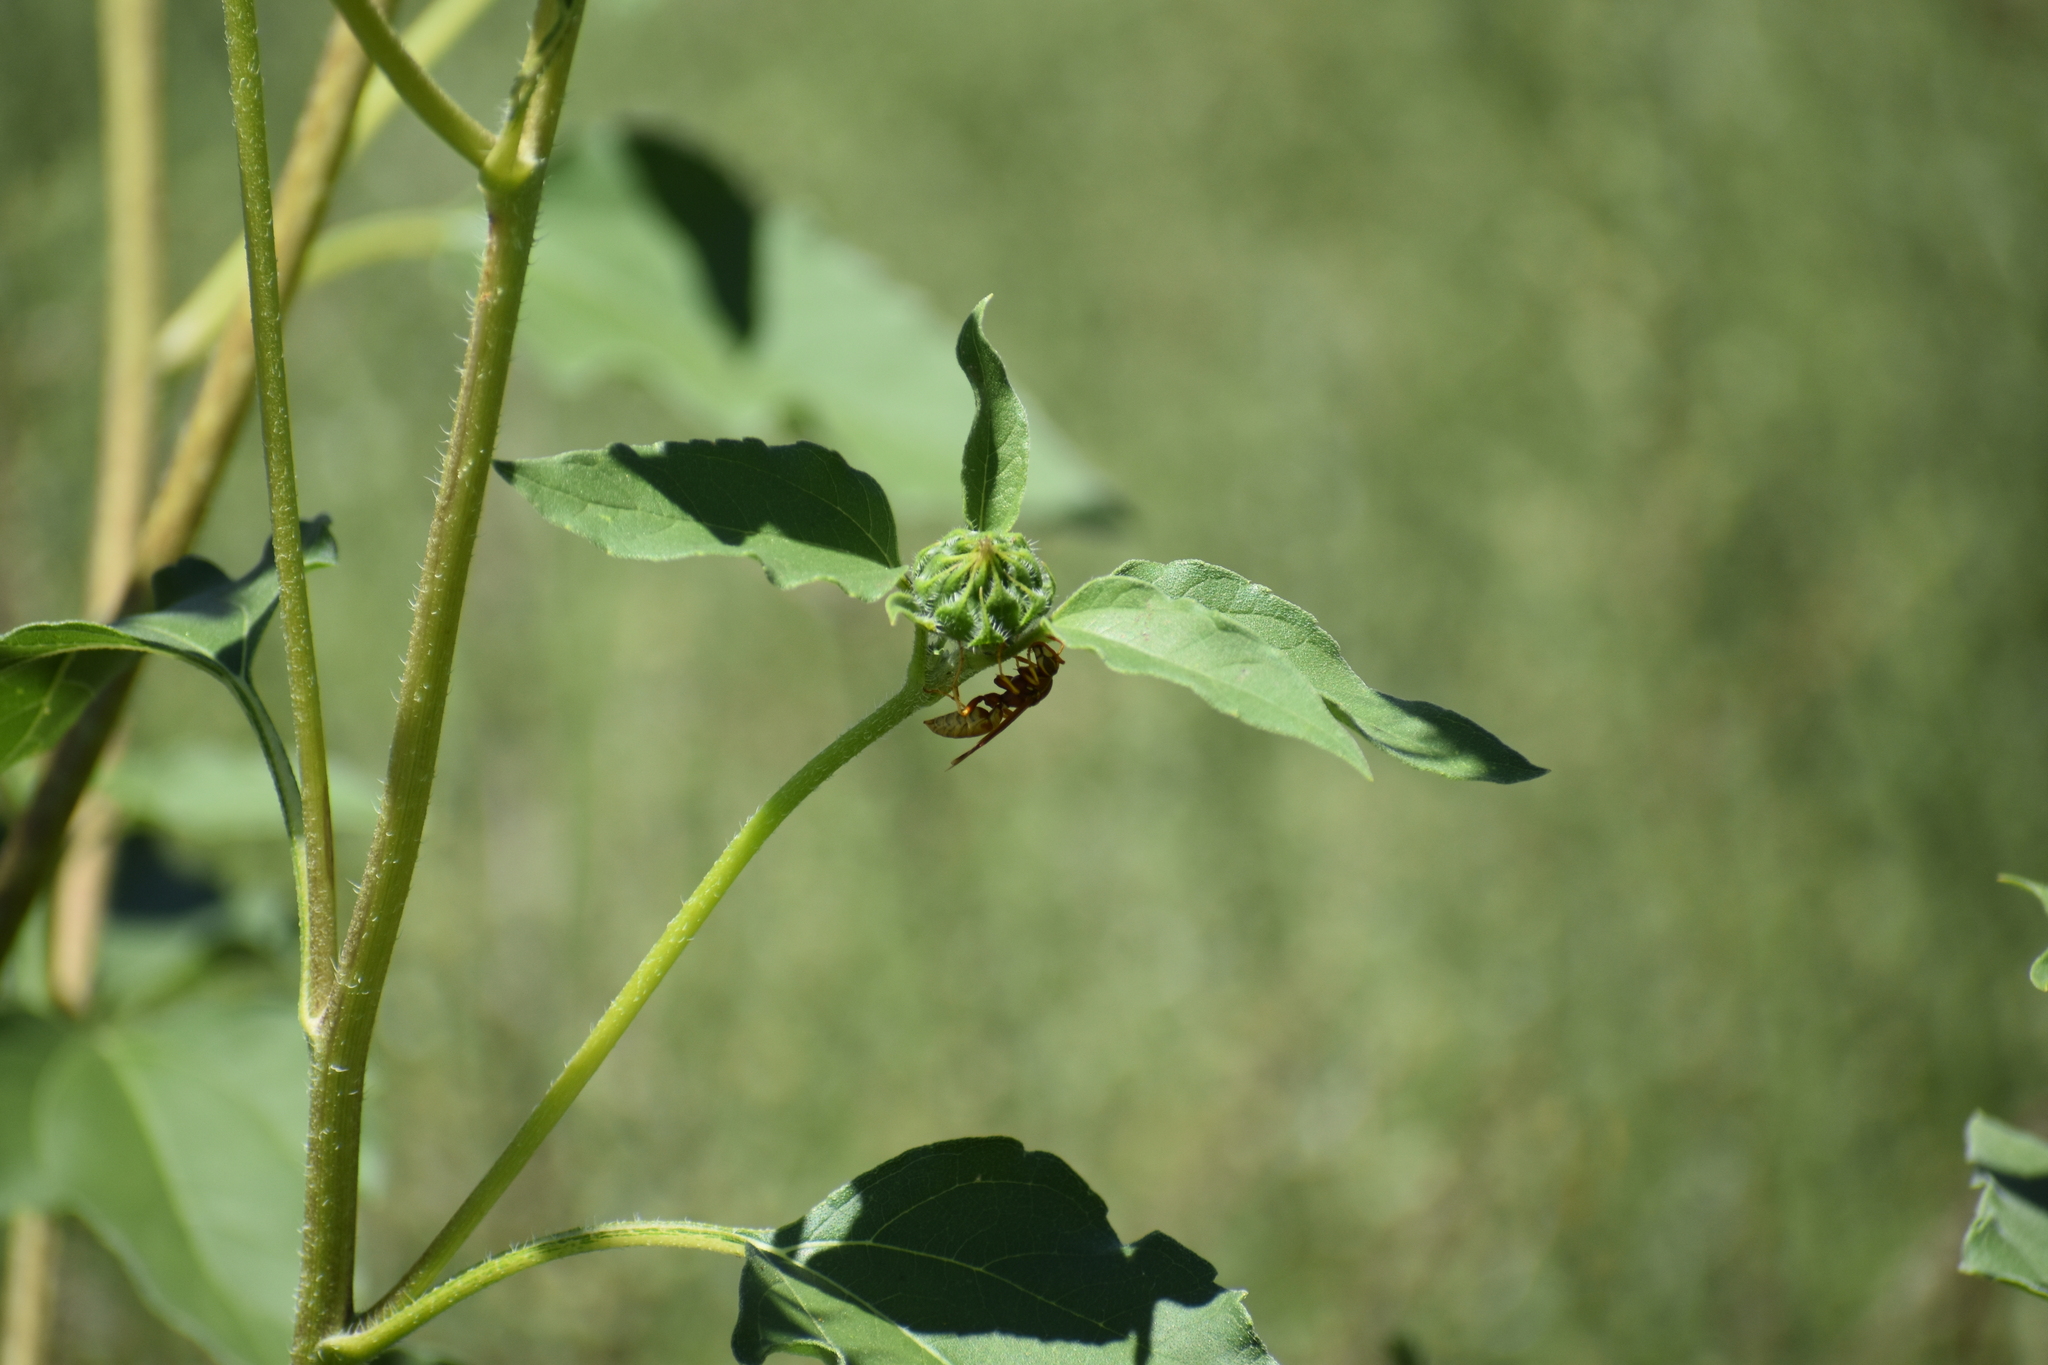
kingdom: Animalia
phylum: Arthropoda
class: Insecta
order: Hymenoptera
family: Eumenidae
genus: Polistes
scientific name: Polistes aurifer
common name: Paper wasp
